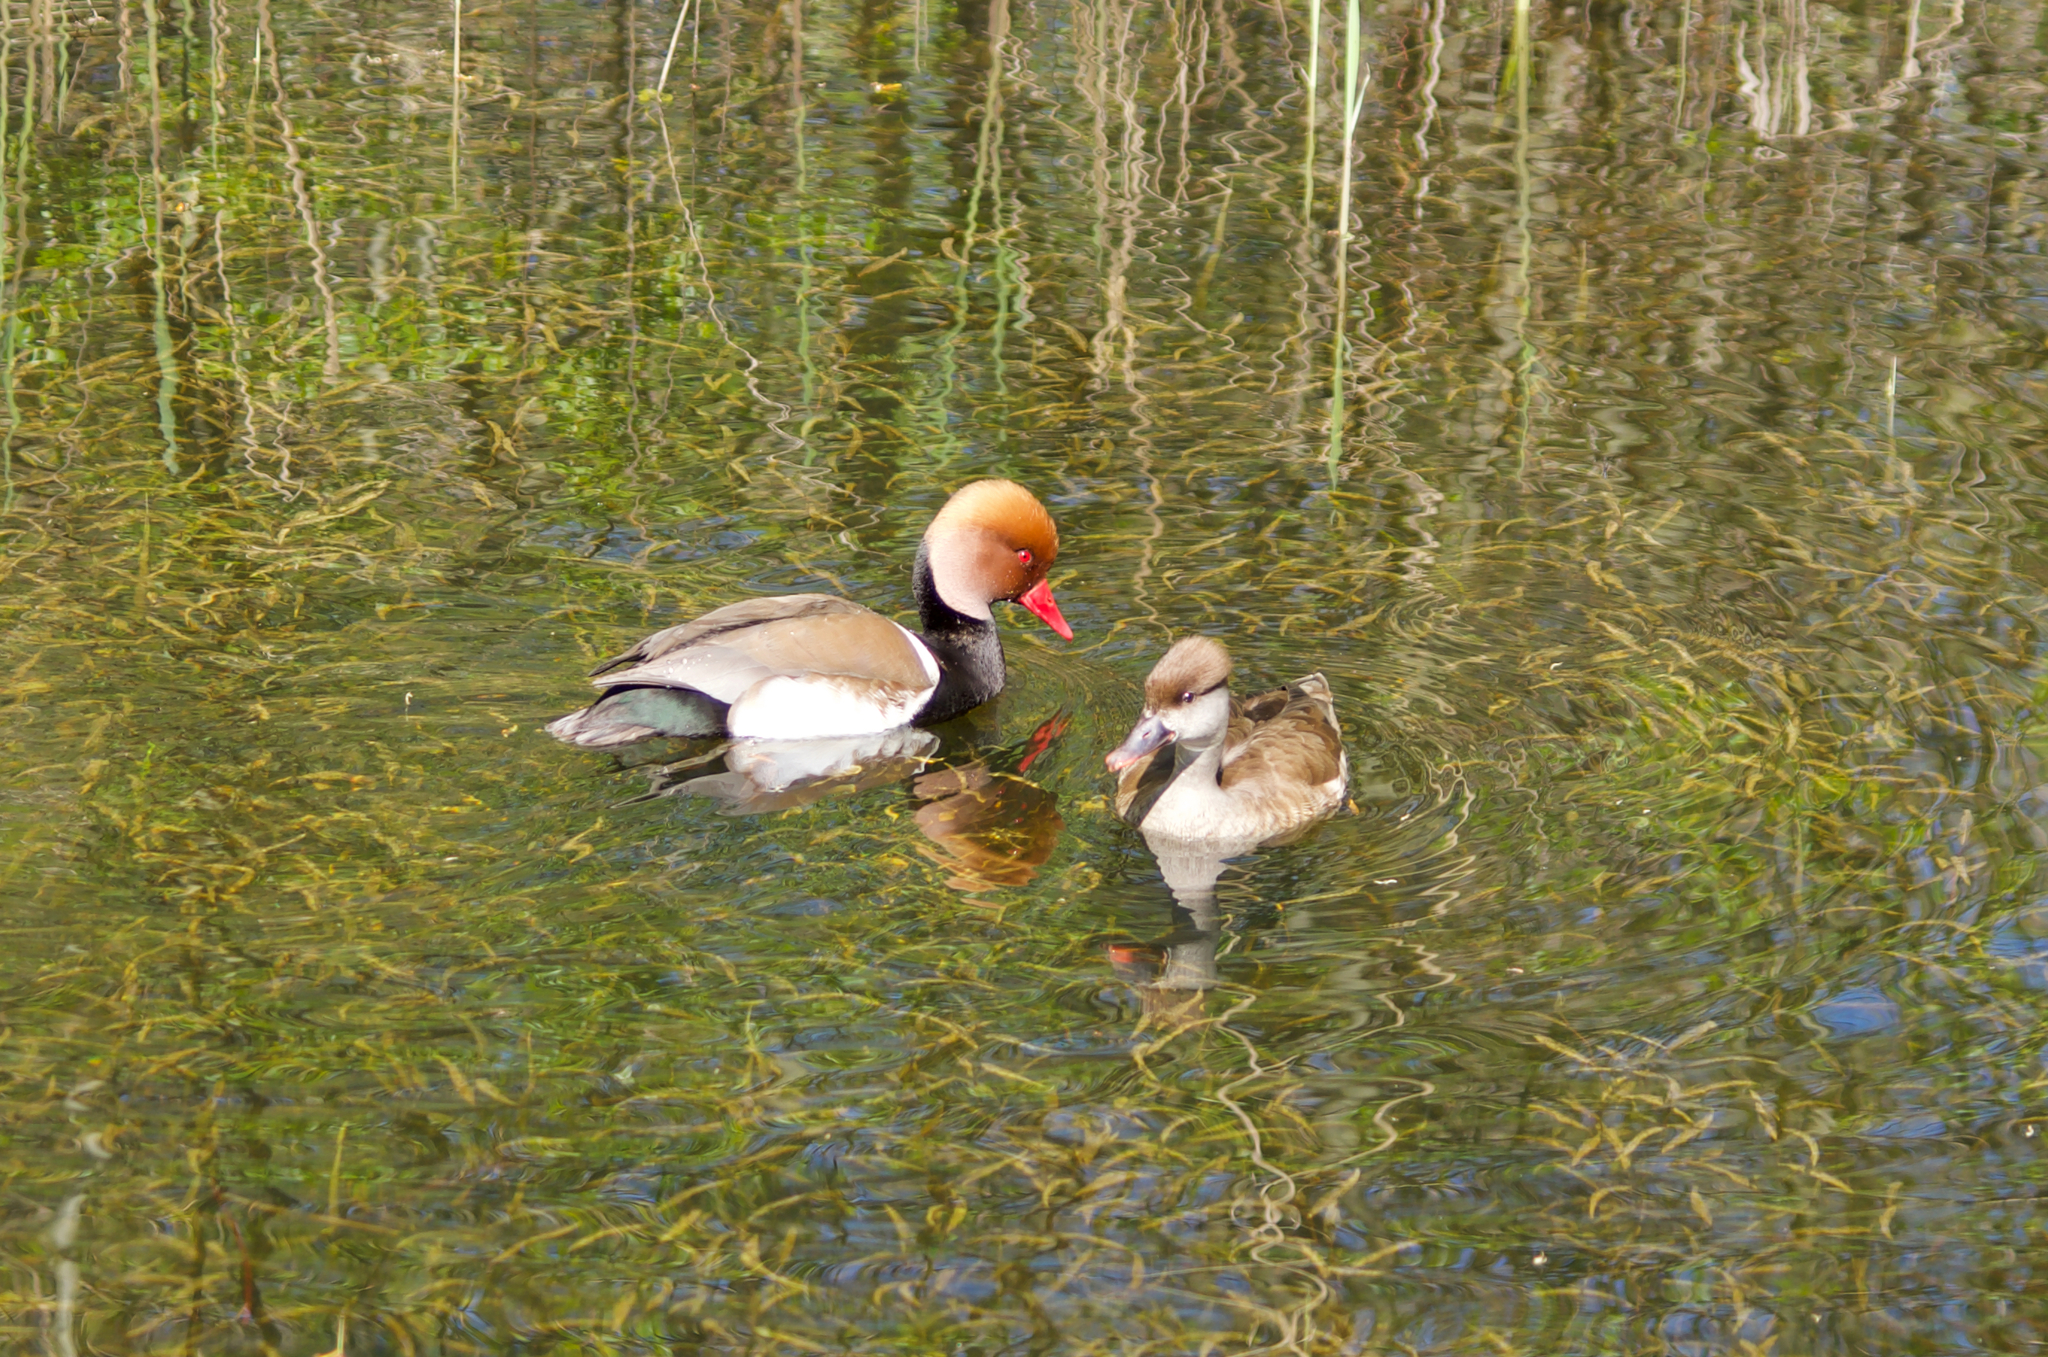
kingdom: Animalia
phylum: Chordata
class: Aves
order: Anseriformes
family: Anatidae
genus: Netta
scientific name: Netta rufina
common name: Red-crested pochard
